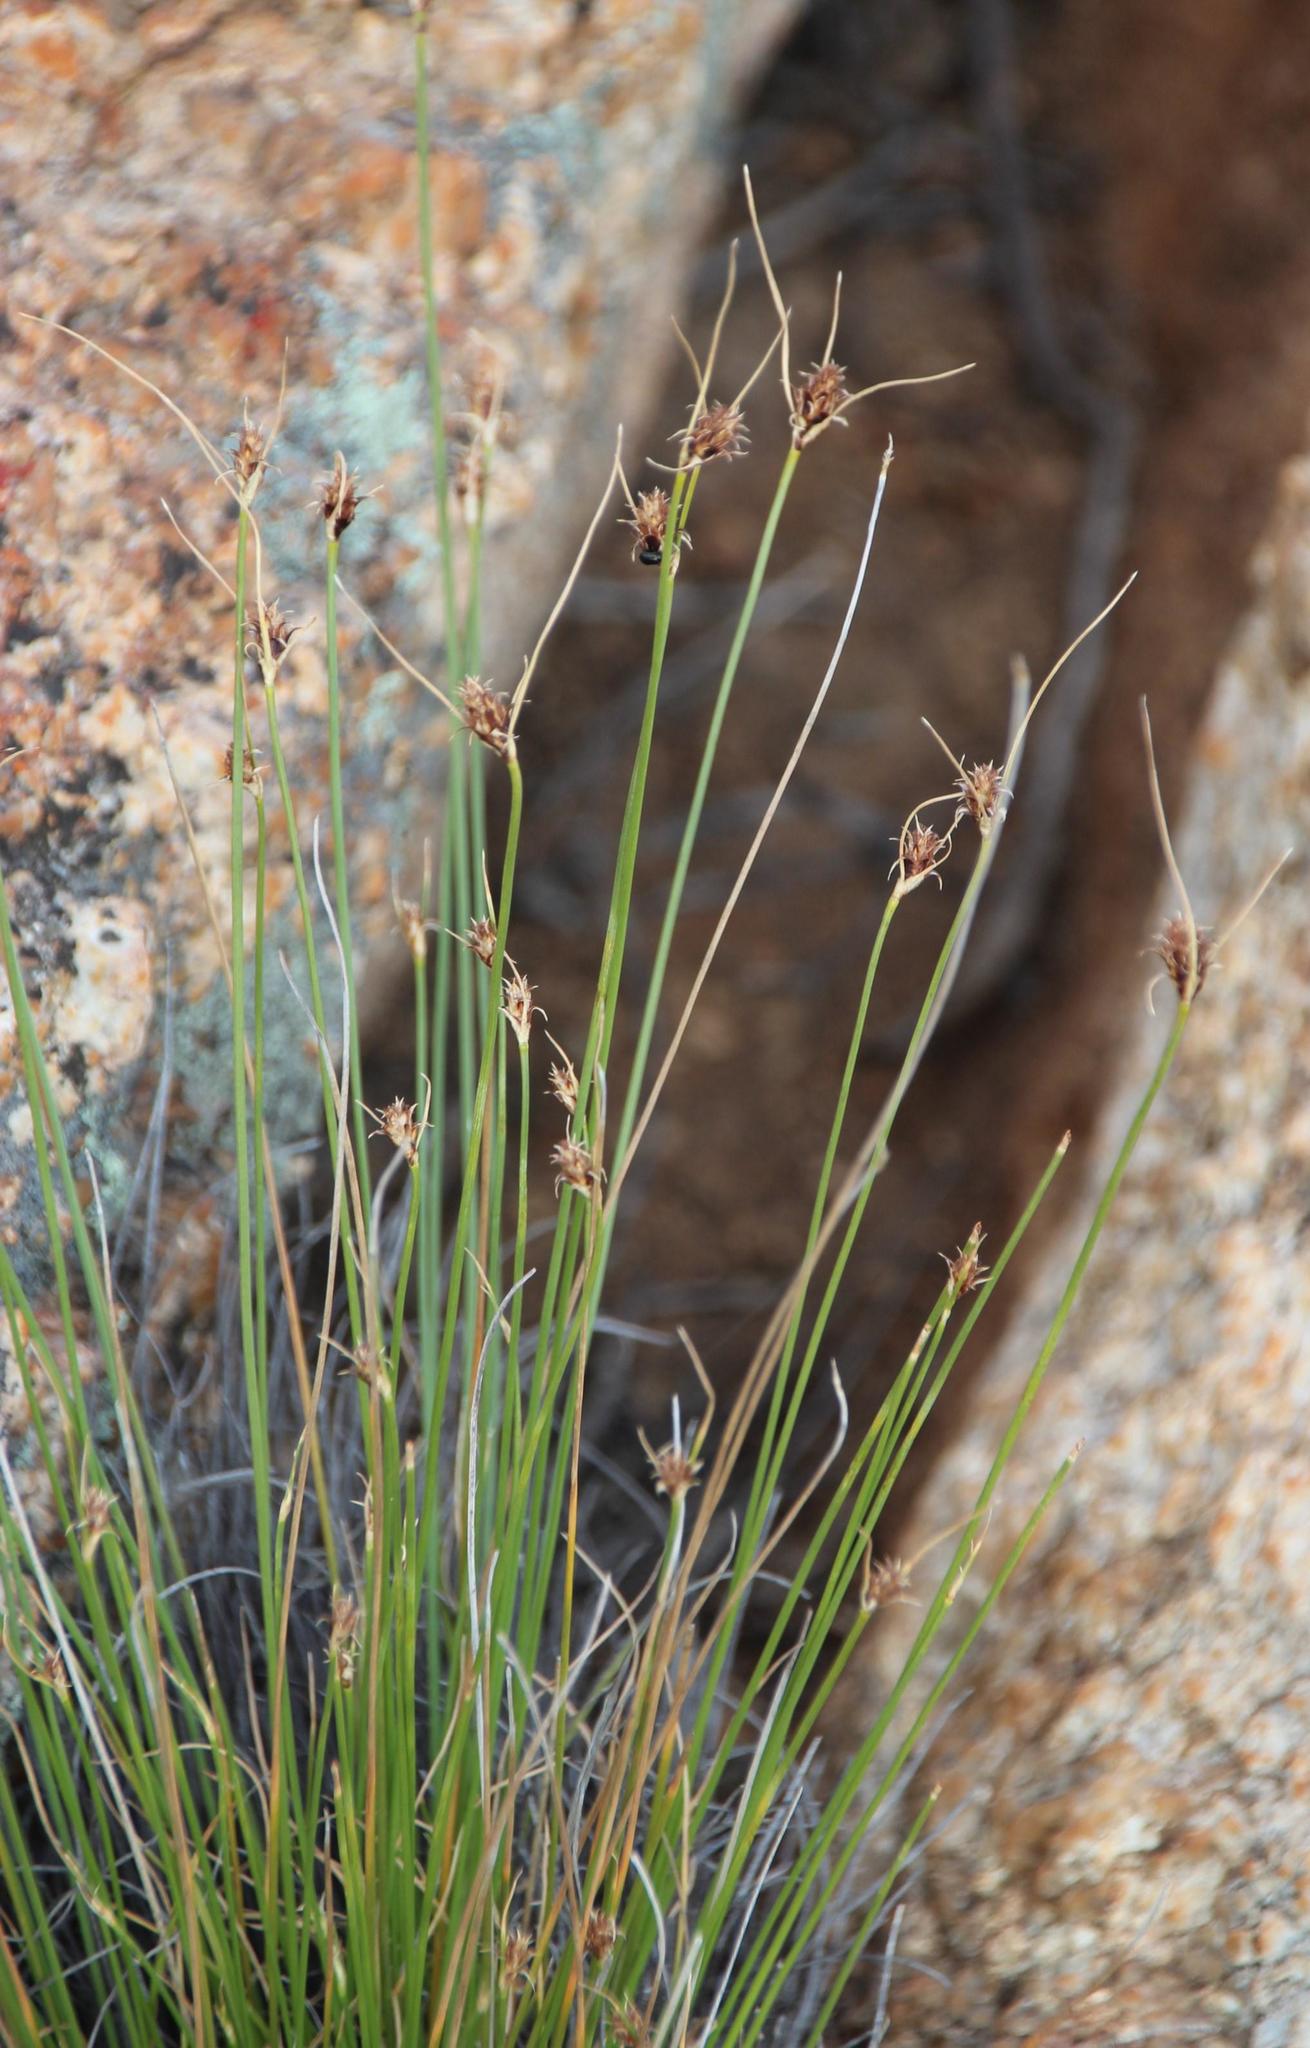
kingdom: Plantae
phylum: Tracheophyta
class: Liliopsida
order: Poales
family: Cyperaceae
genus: Ficinia
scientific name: Ficinia nigrescens
